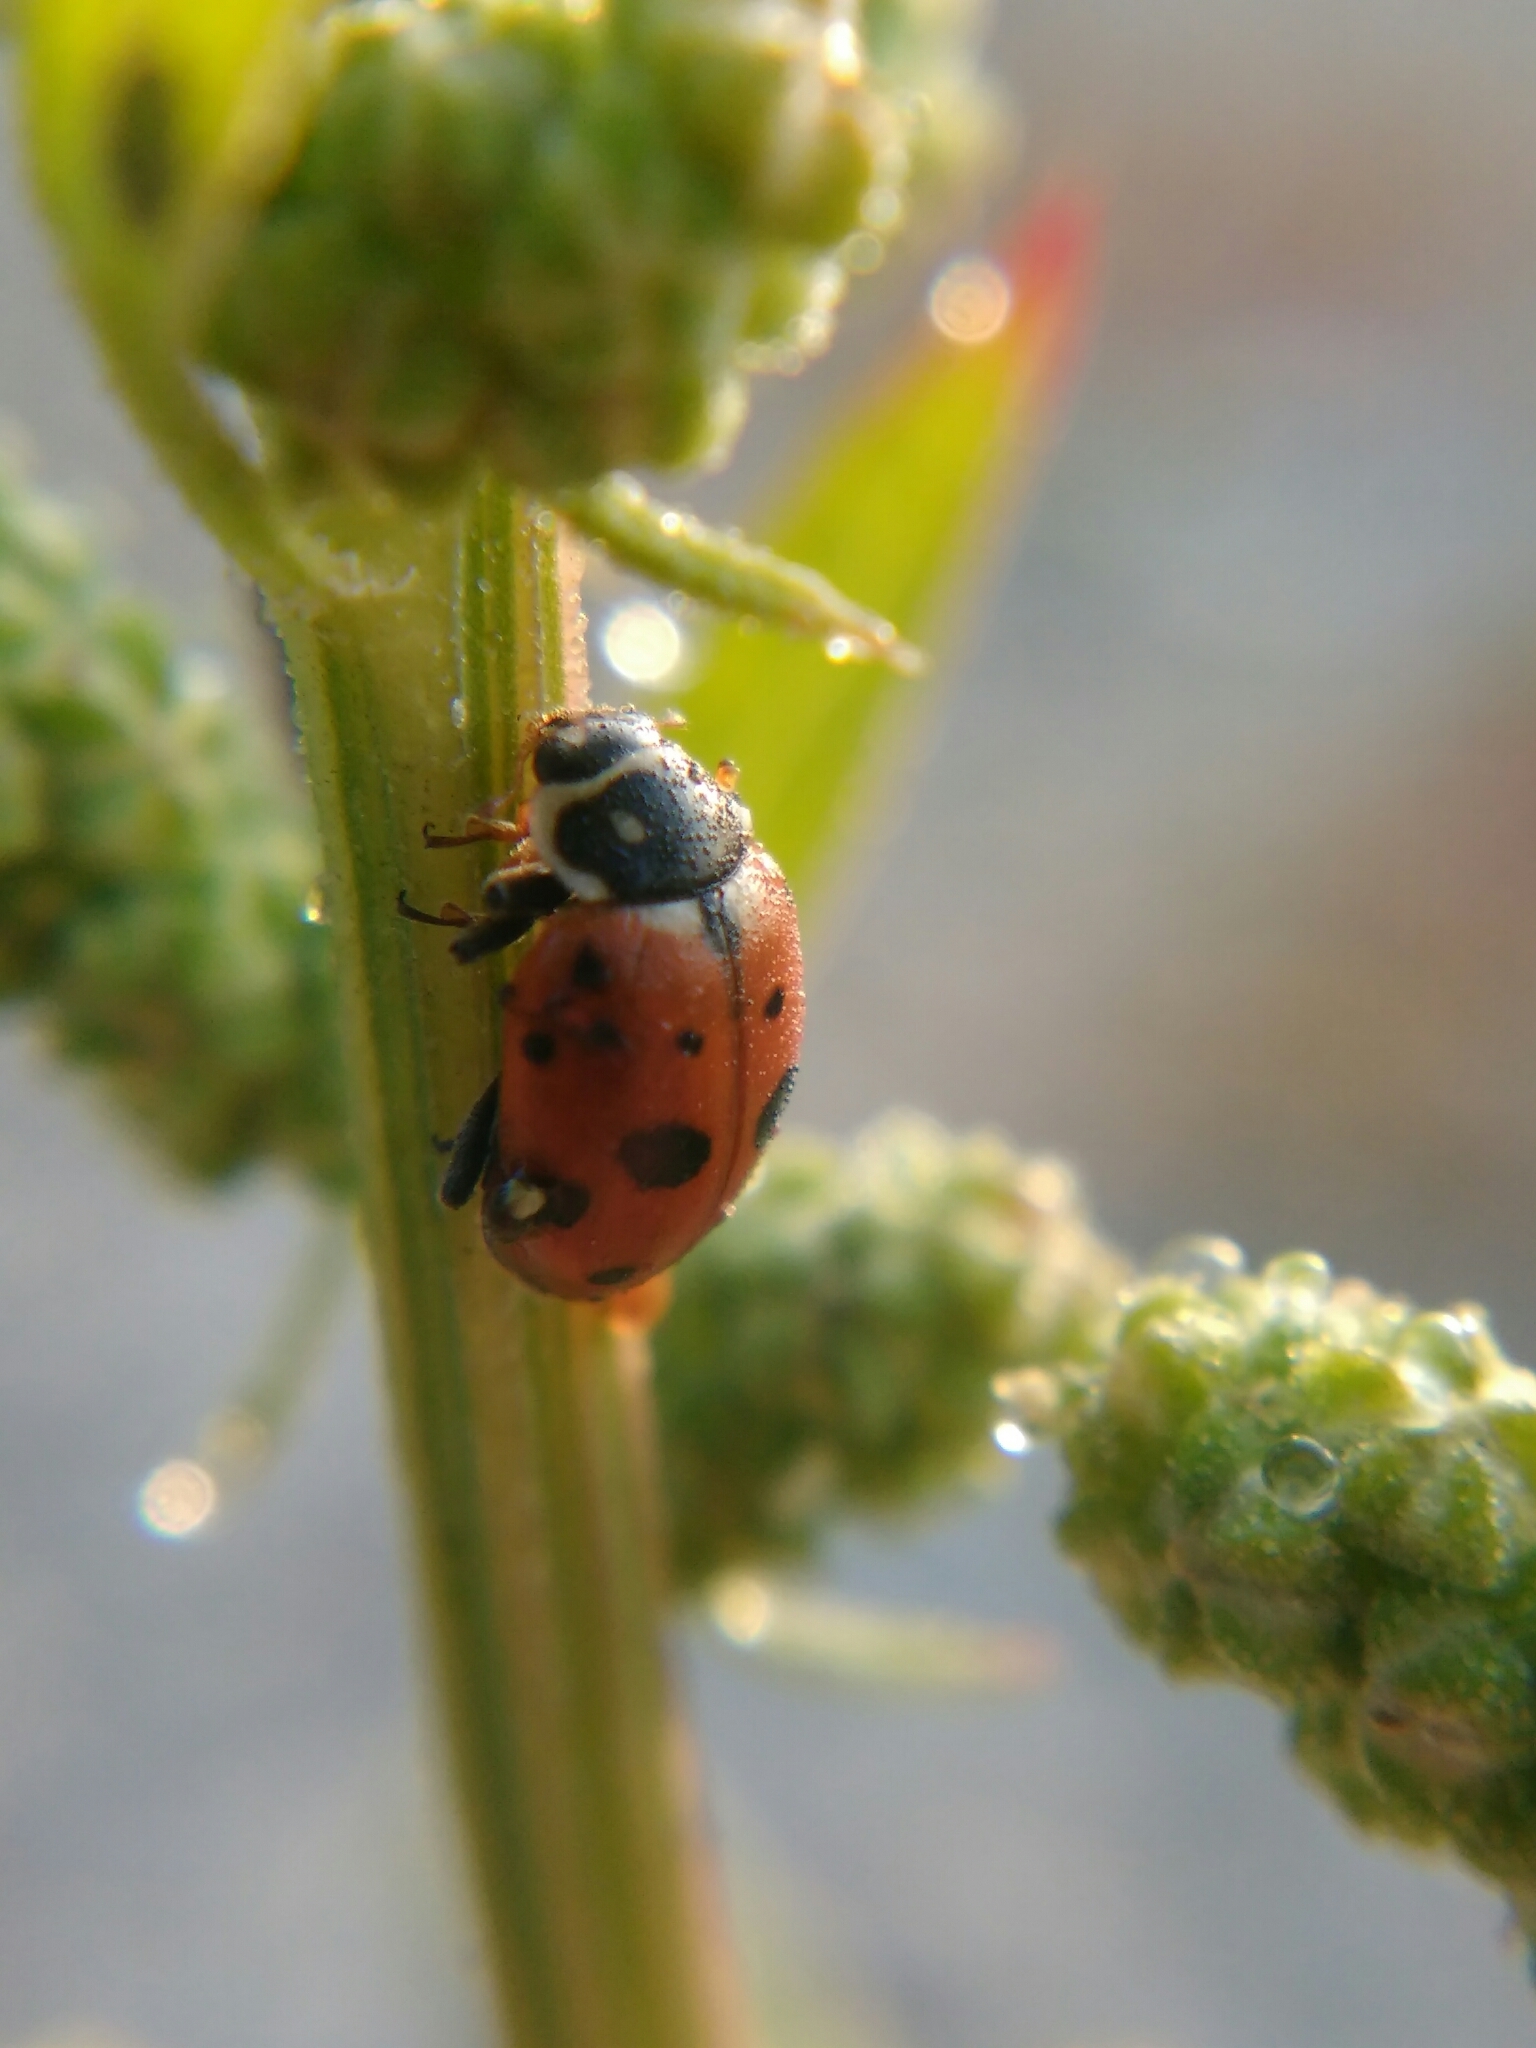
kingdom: Animalia
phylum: Arthropoda
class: Insecta
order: Coleoptera
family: Coccinellidae
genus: Hippodamia
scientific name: Hippodamia variegata
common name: Ladybird beetle
